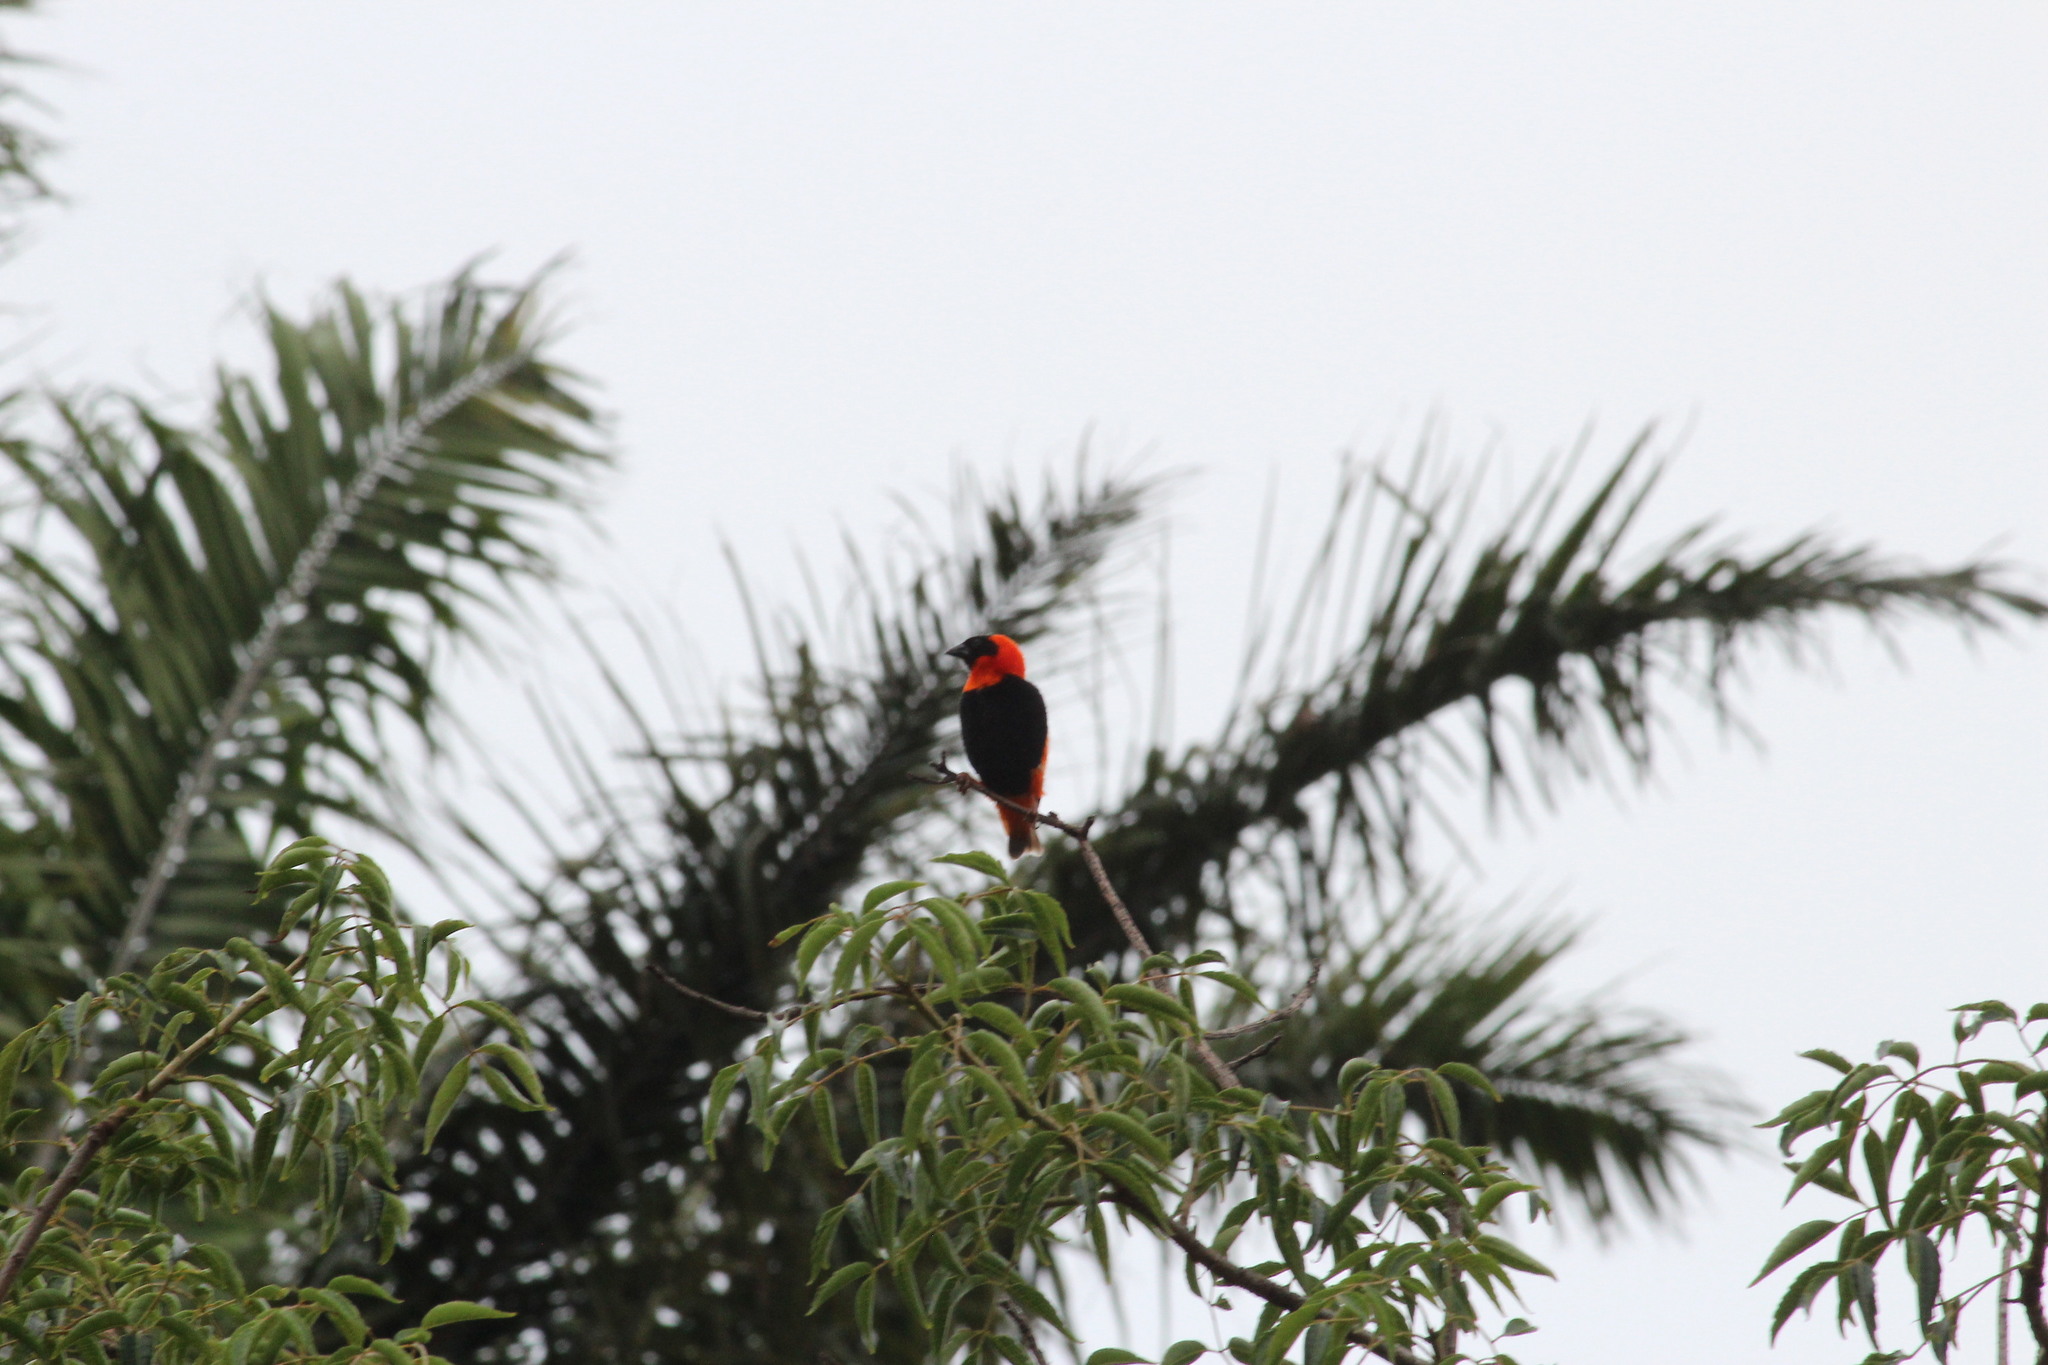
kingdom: Animalia
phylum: Chordata
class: Aves
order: Passeriformes
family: Ploceidae
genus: Euplectes
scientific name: Euplectes orix
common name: Southern red bishop
